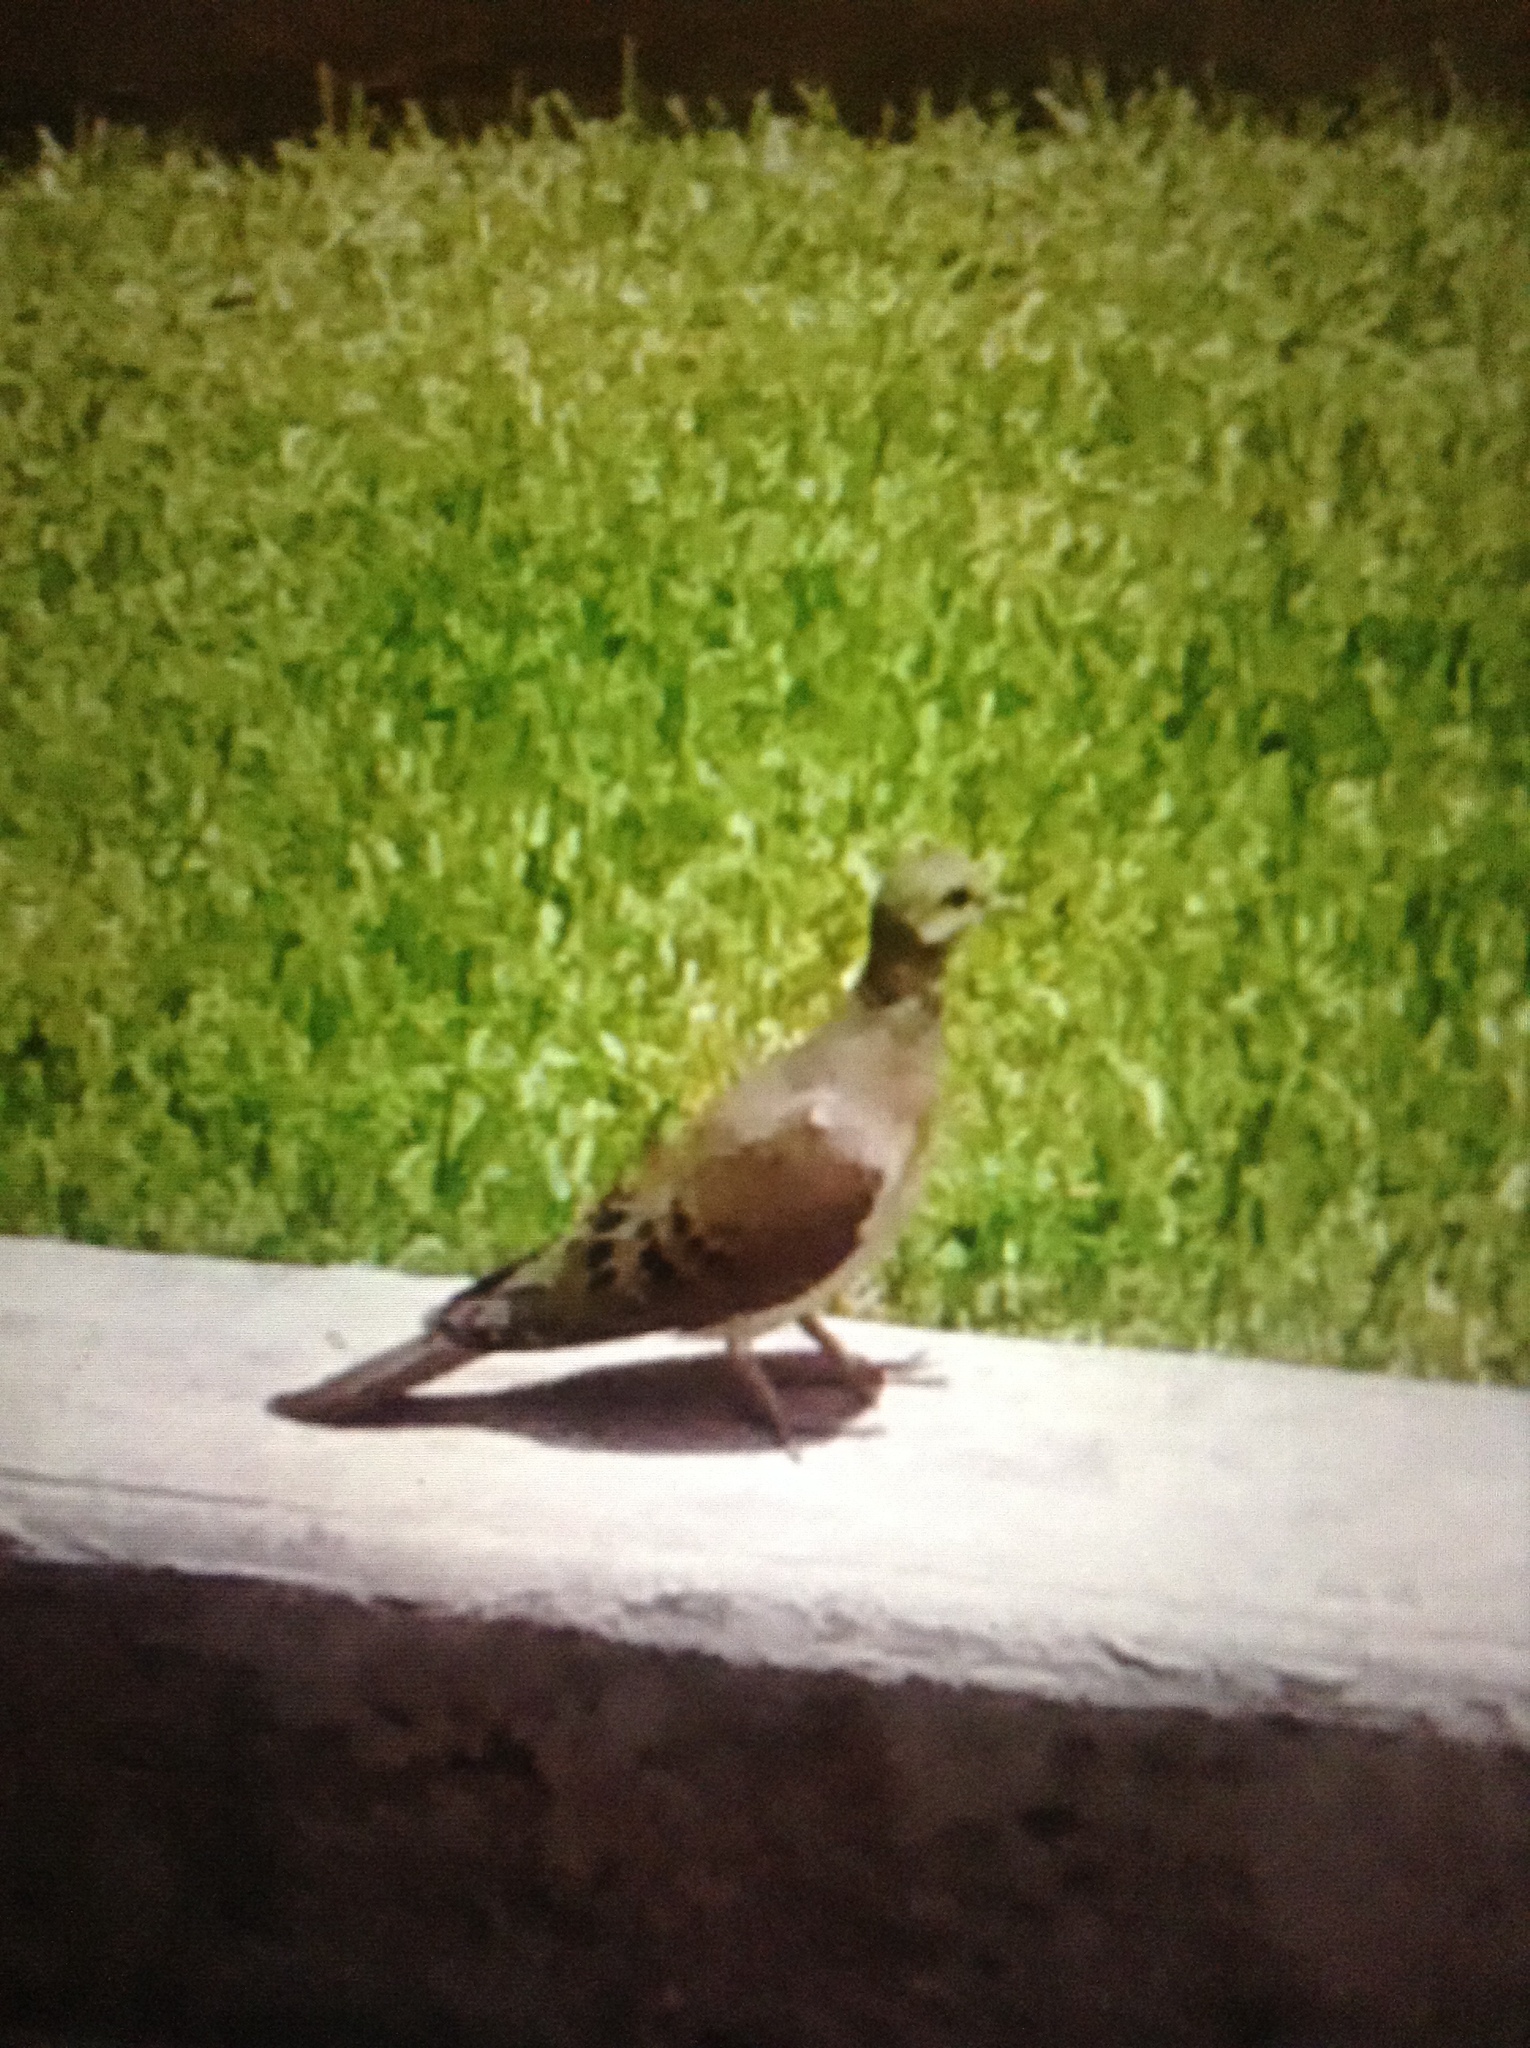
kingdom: Animalia
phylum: Chordata
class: Aves
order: Columbiformes
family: Columbidae
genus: Zenaida
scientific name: Zenaida macroura
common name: Mourning dove
